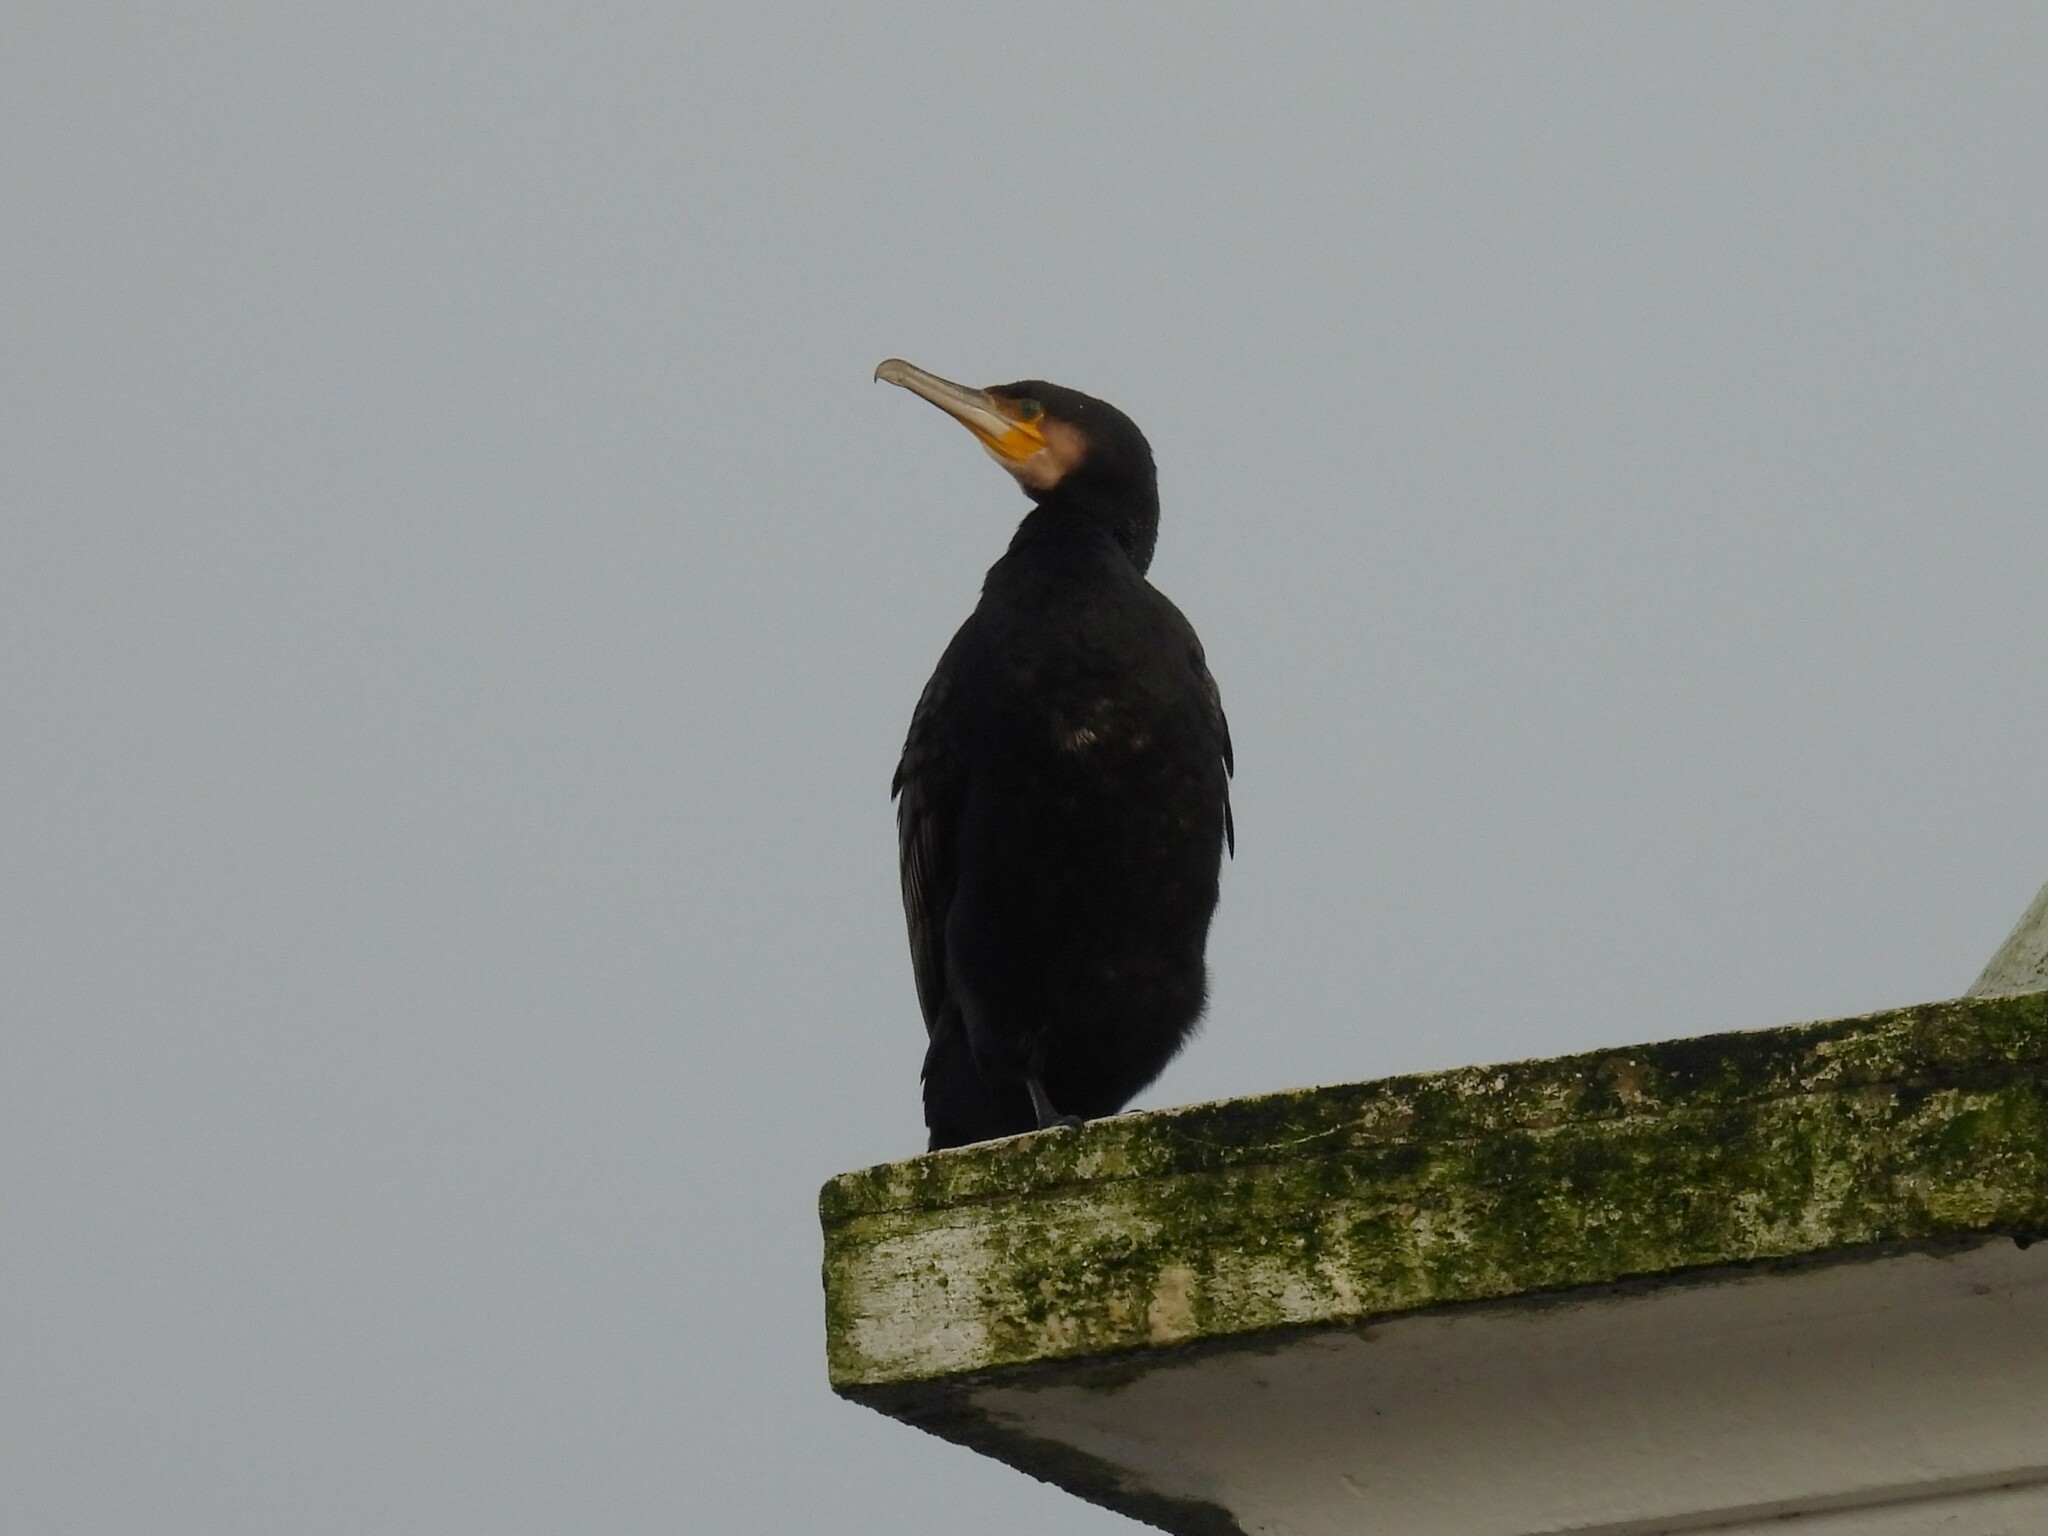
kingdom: Animalia
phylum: Chordata
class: Aves
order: Suliformes
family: Phalacrocoracidae
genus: Phalacrocorax
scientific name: Phalacrocorax carbo
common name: Great cormorant
